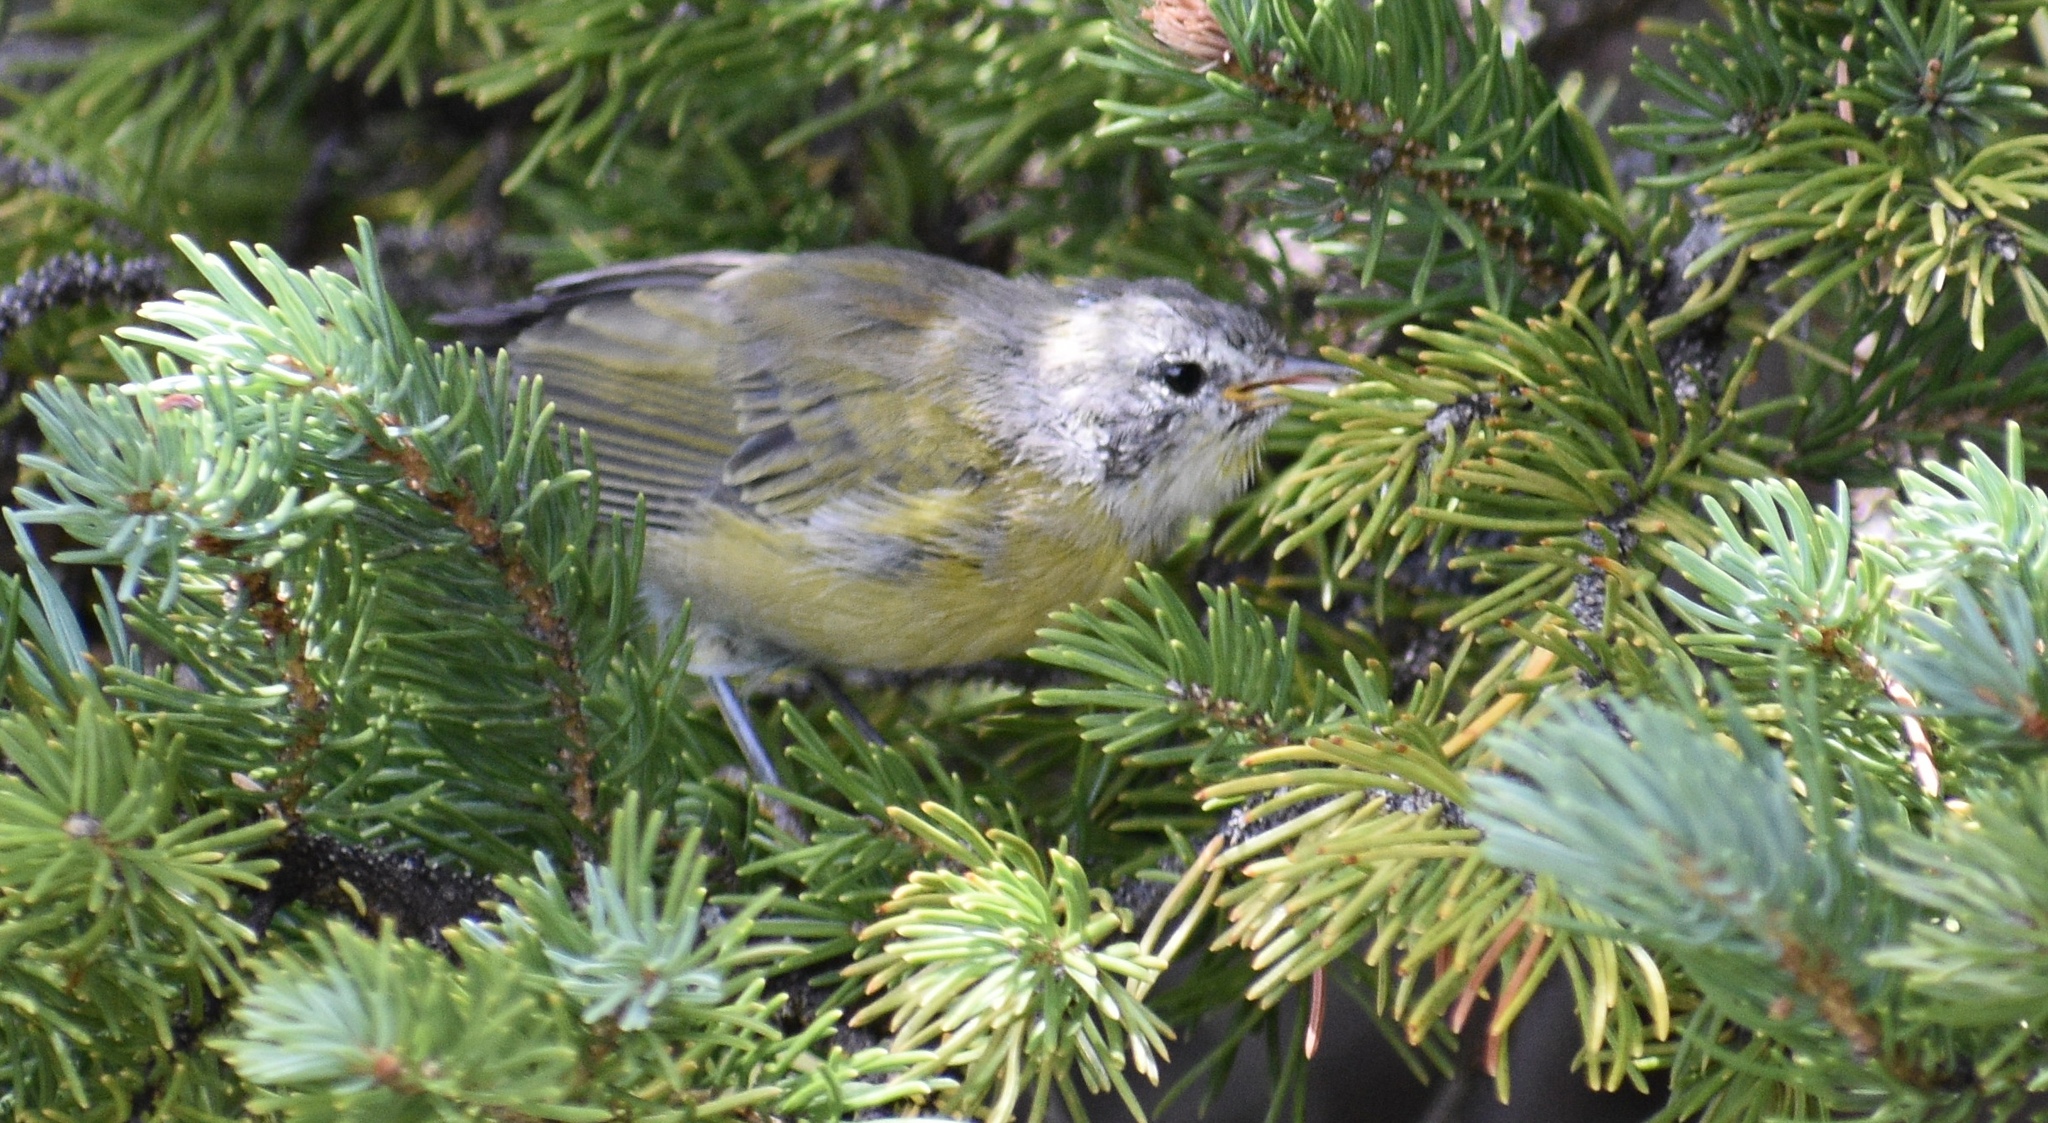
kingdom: Animalia
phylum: Chordata
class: Aves
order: Passeriformes
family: Parulidae
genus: Leiothlypis
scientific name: Leiothlypis celata
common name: Orange-crowned warbler
